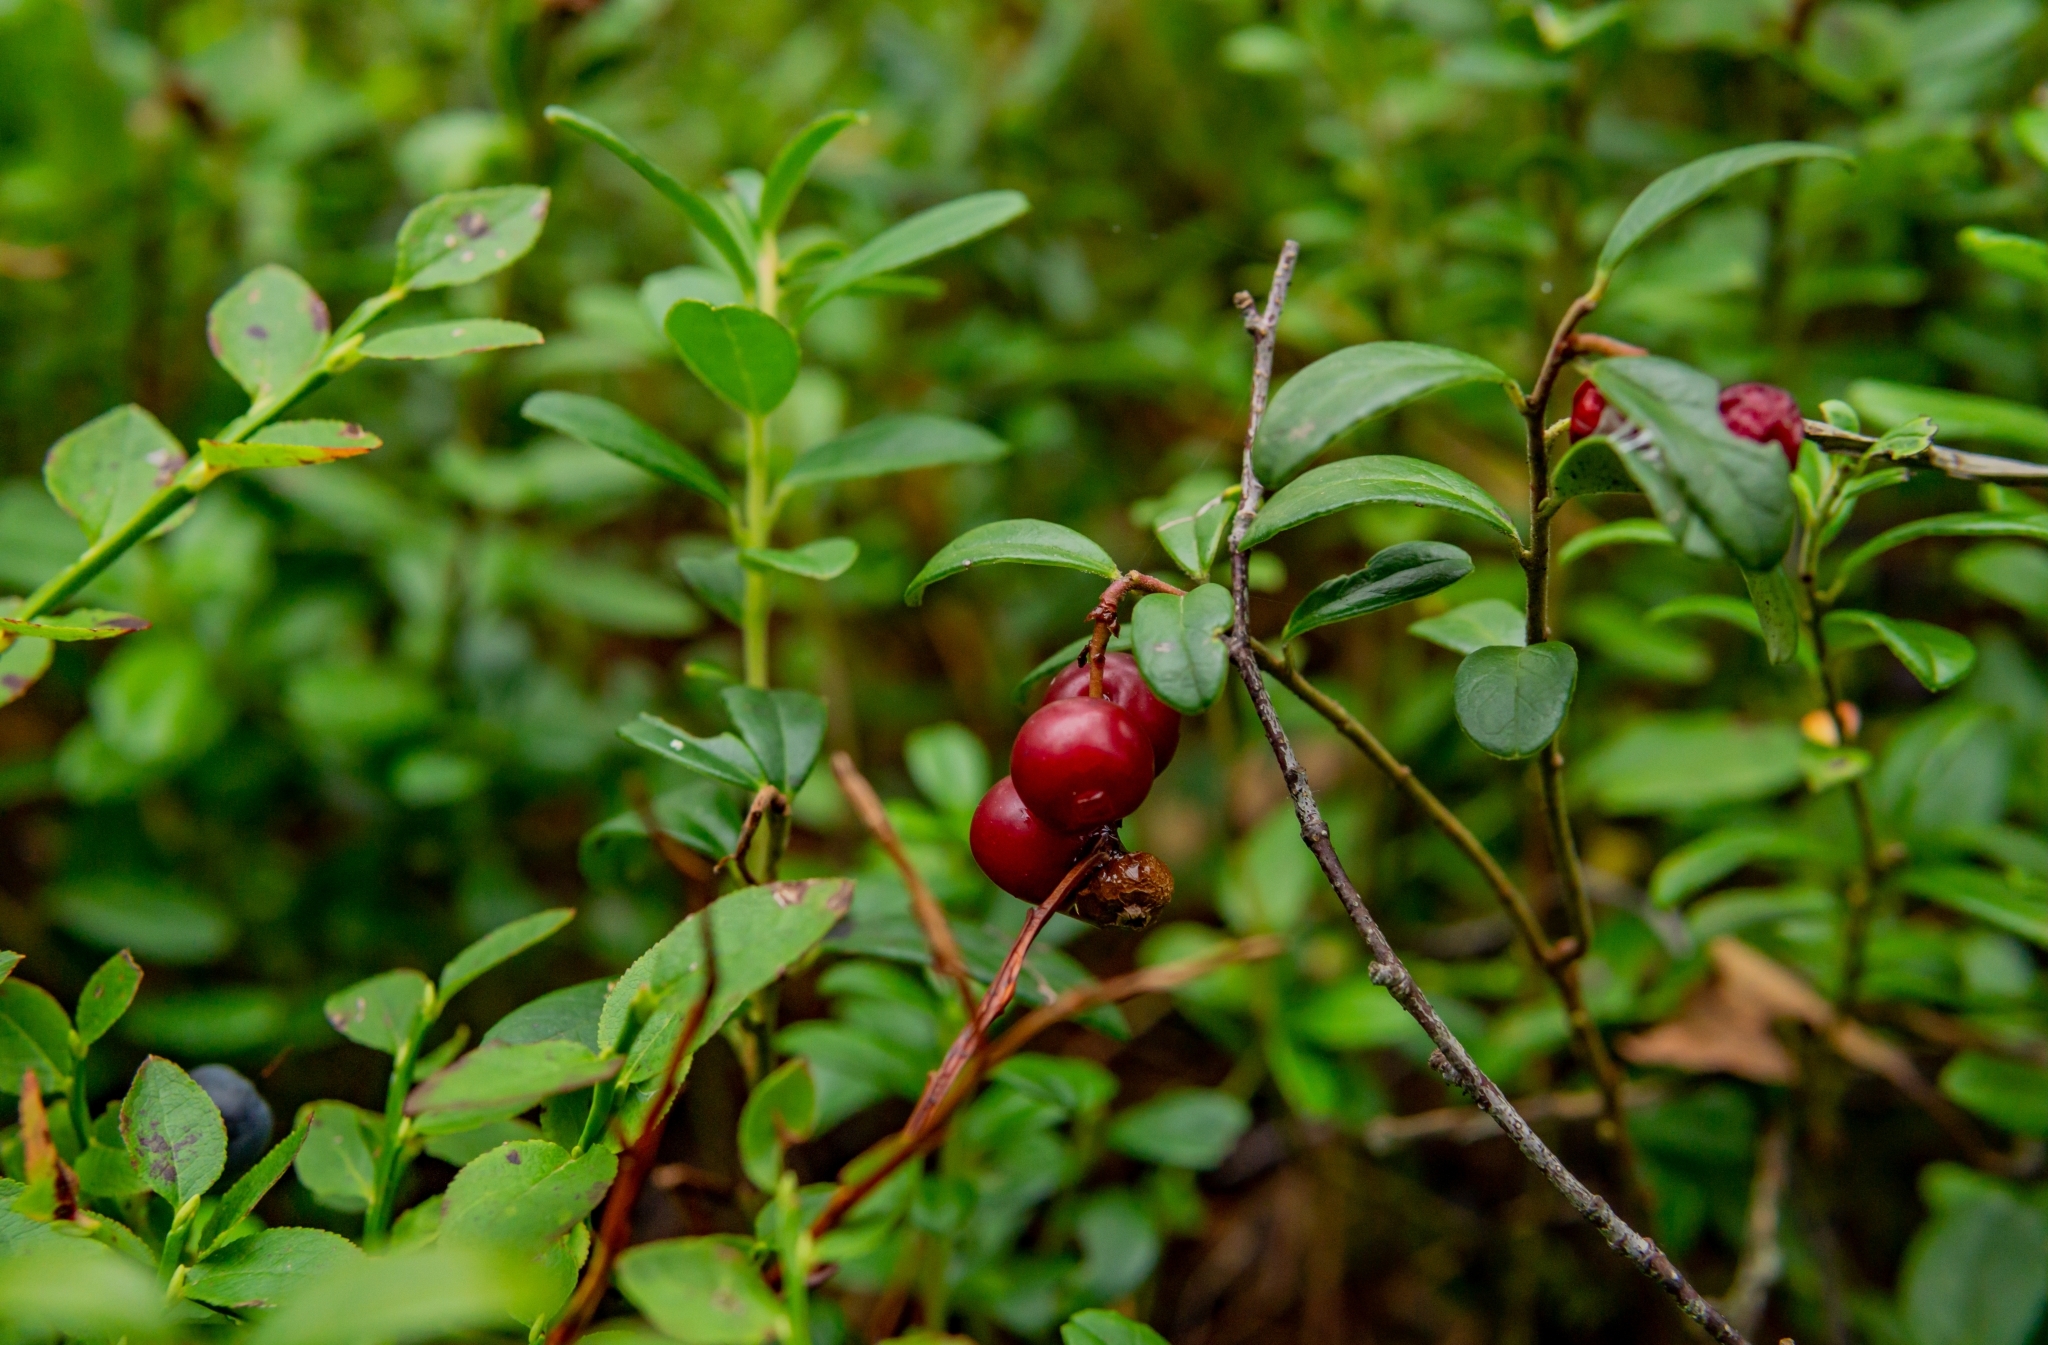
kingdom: Plantae
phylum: Tracheophyta
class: Magnoliopsida
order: Ericales
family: Ericaceae
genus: Vaccinium
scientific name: Vaccinium vitis-idaea
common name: Cowberry
